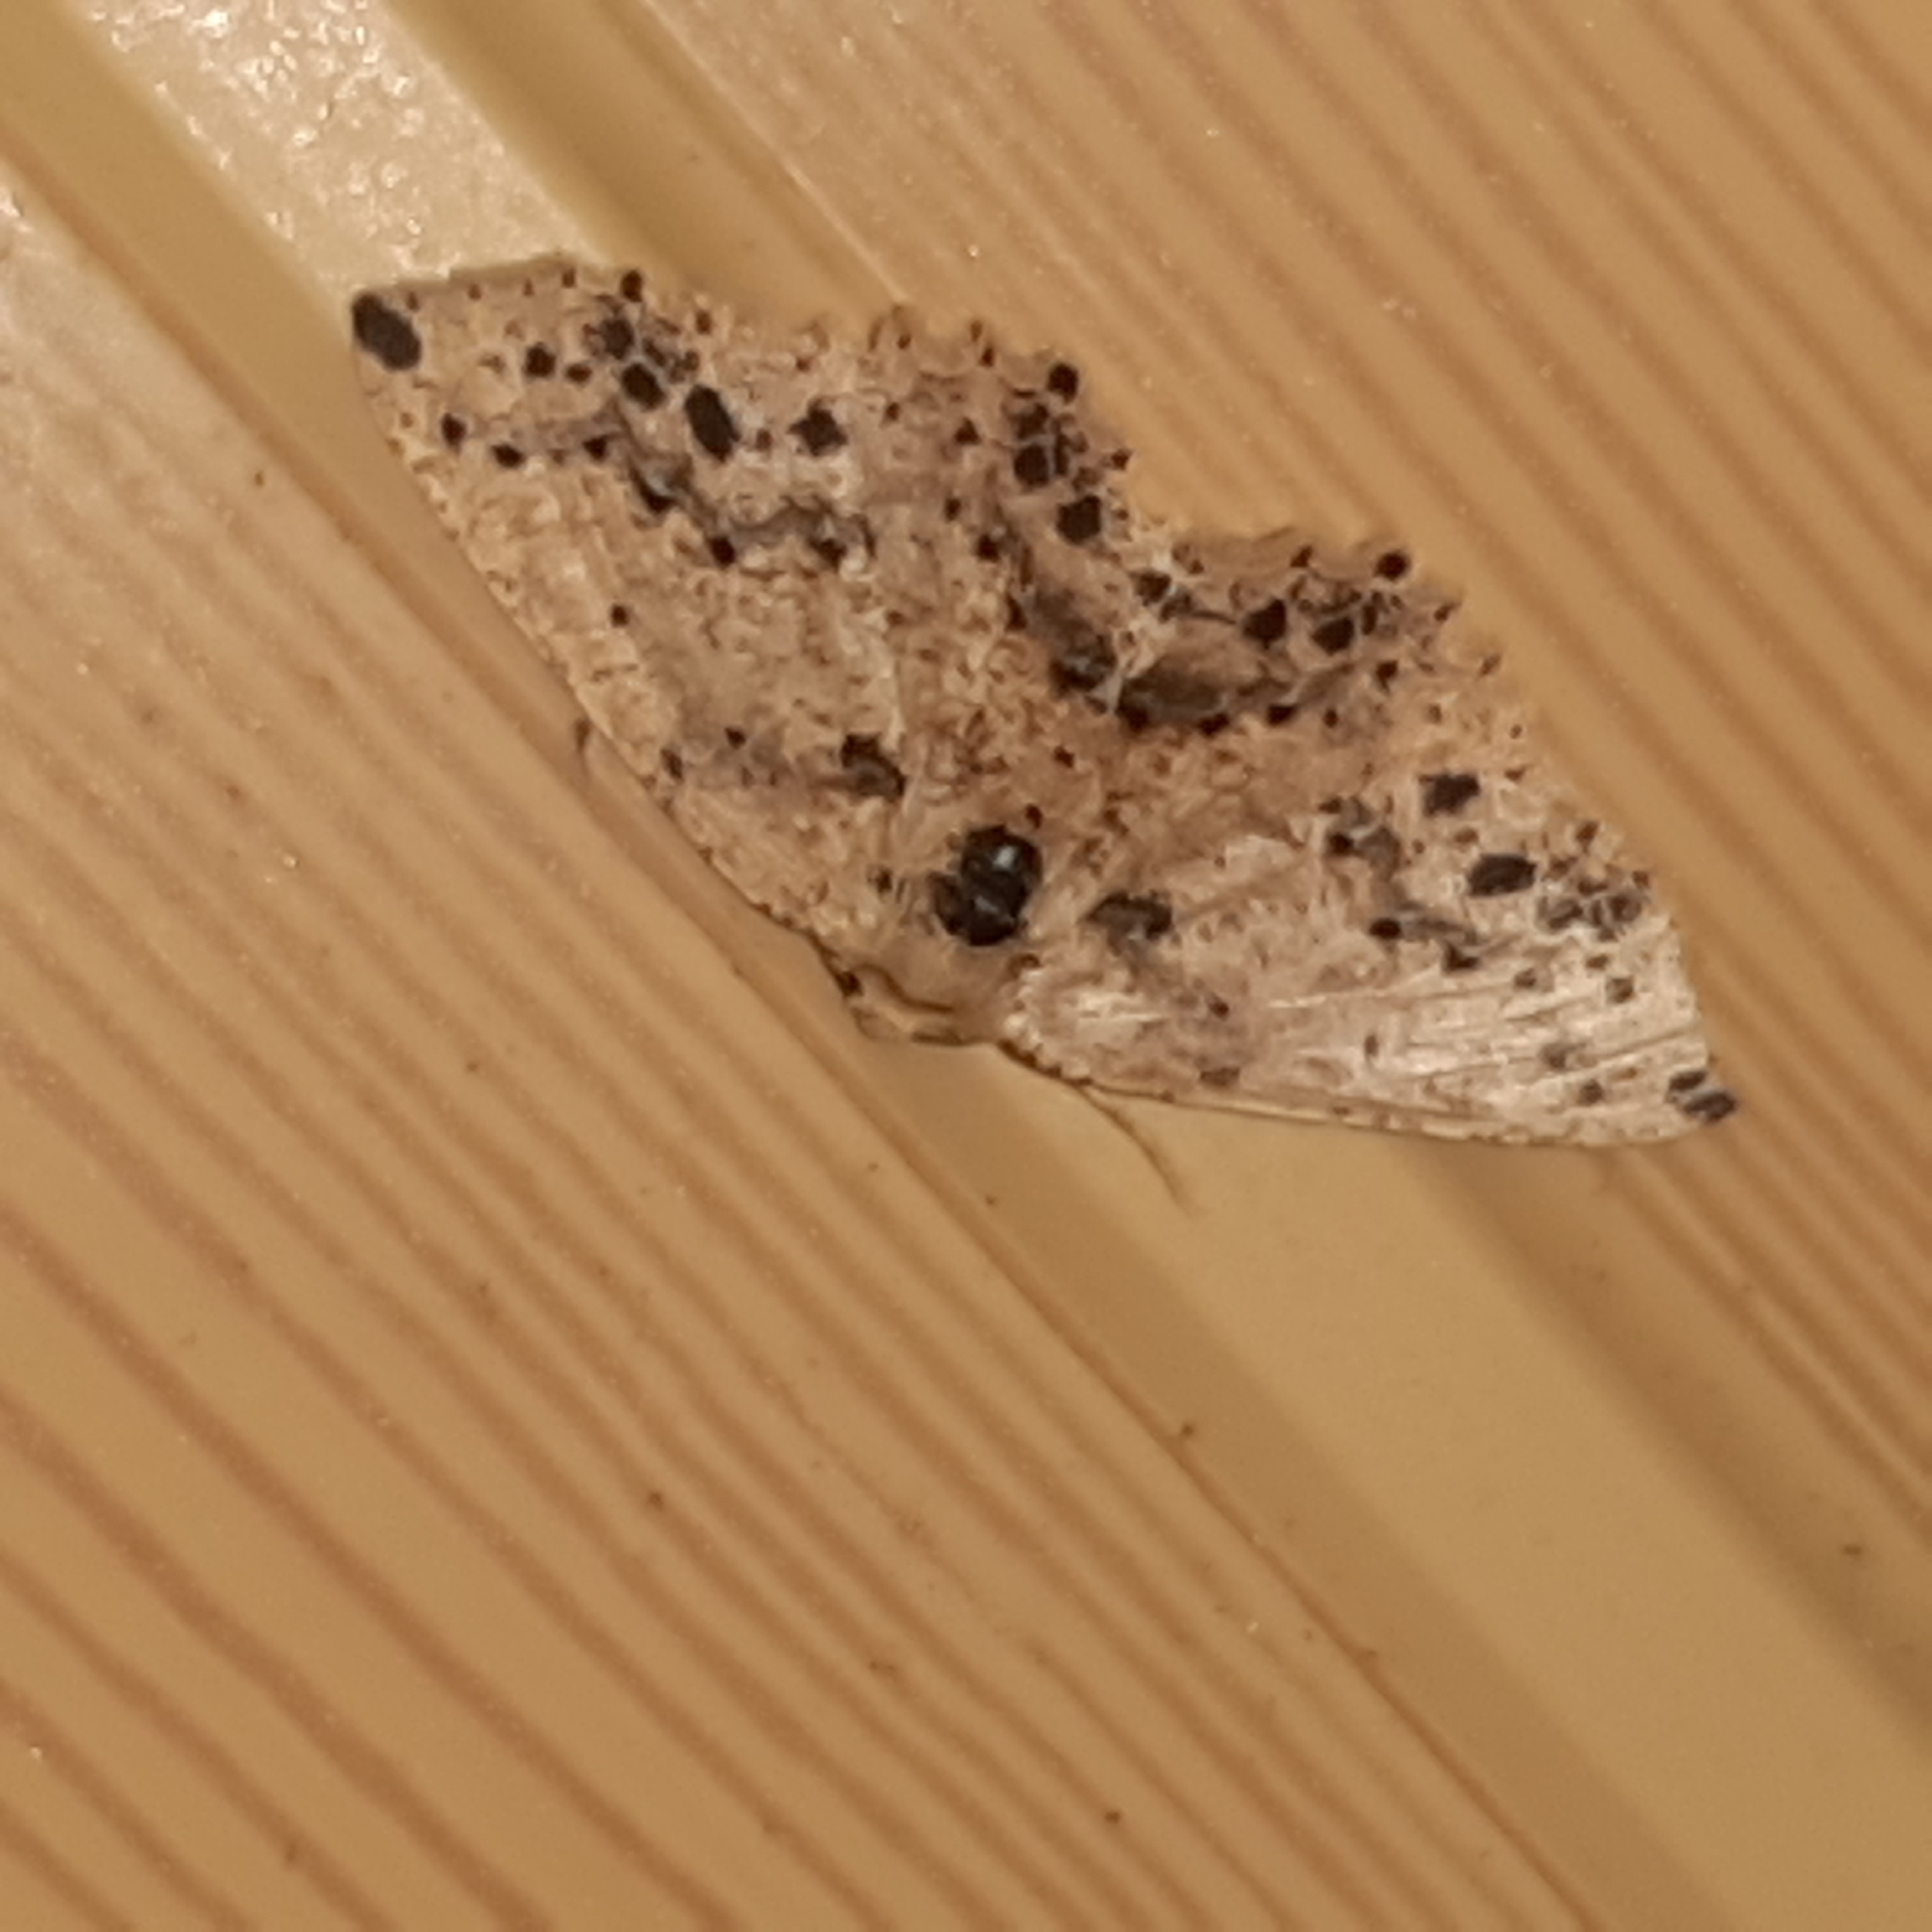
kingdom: Animalia
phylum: Arthropoda
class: Insecta
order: Lepidoptera
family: Geometridae
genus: Isochromodes
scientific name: Isochromodes bellona
